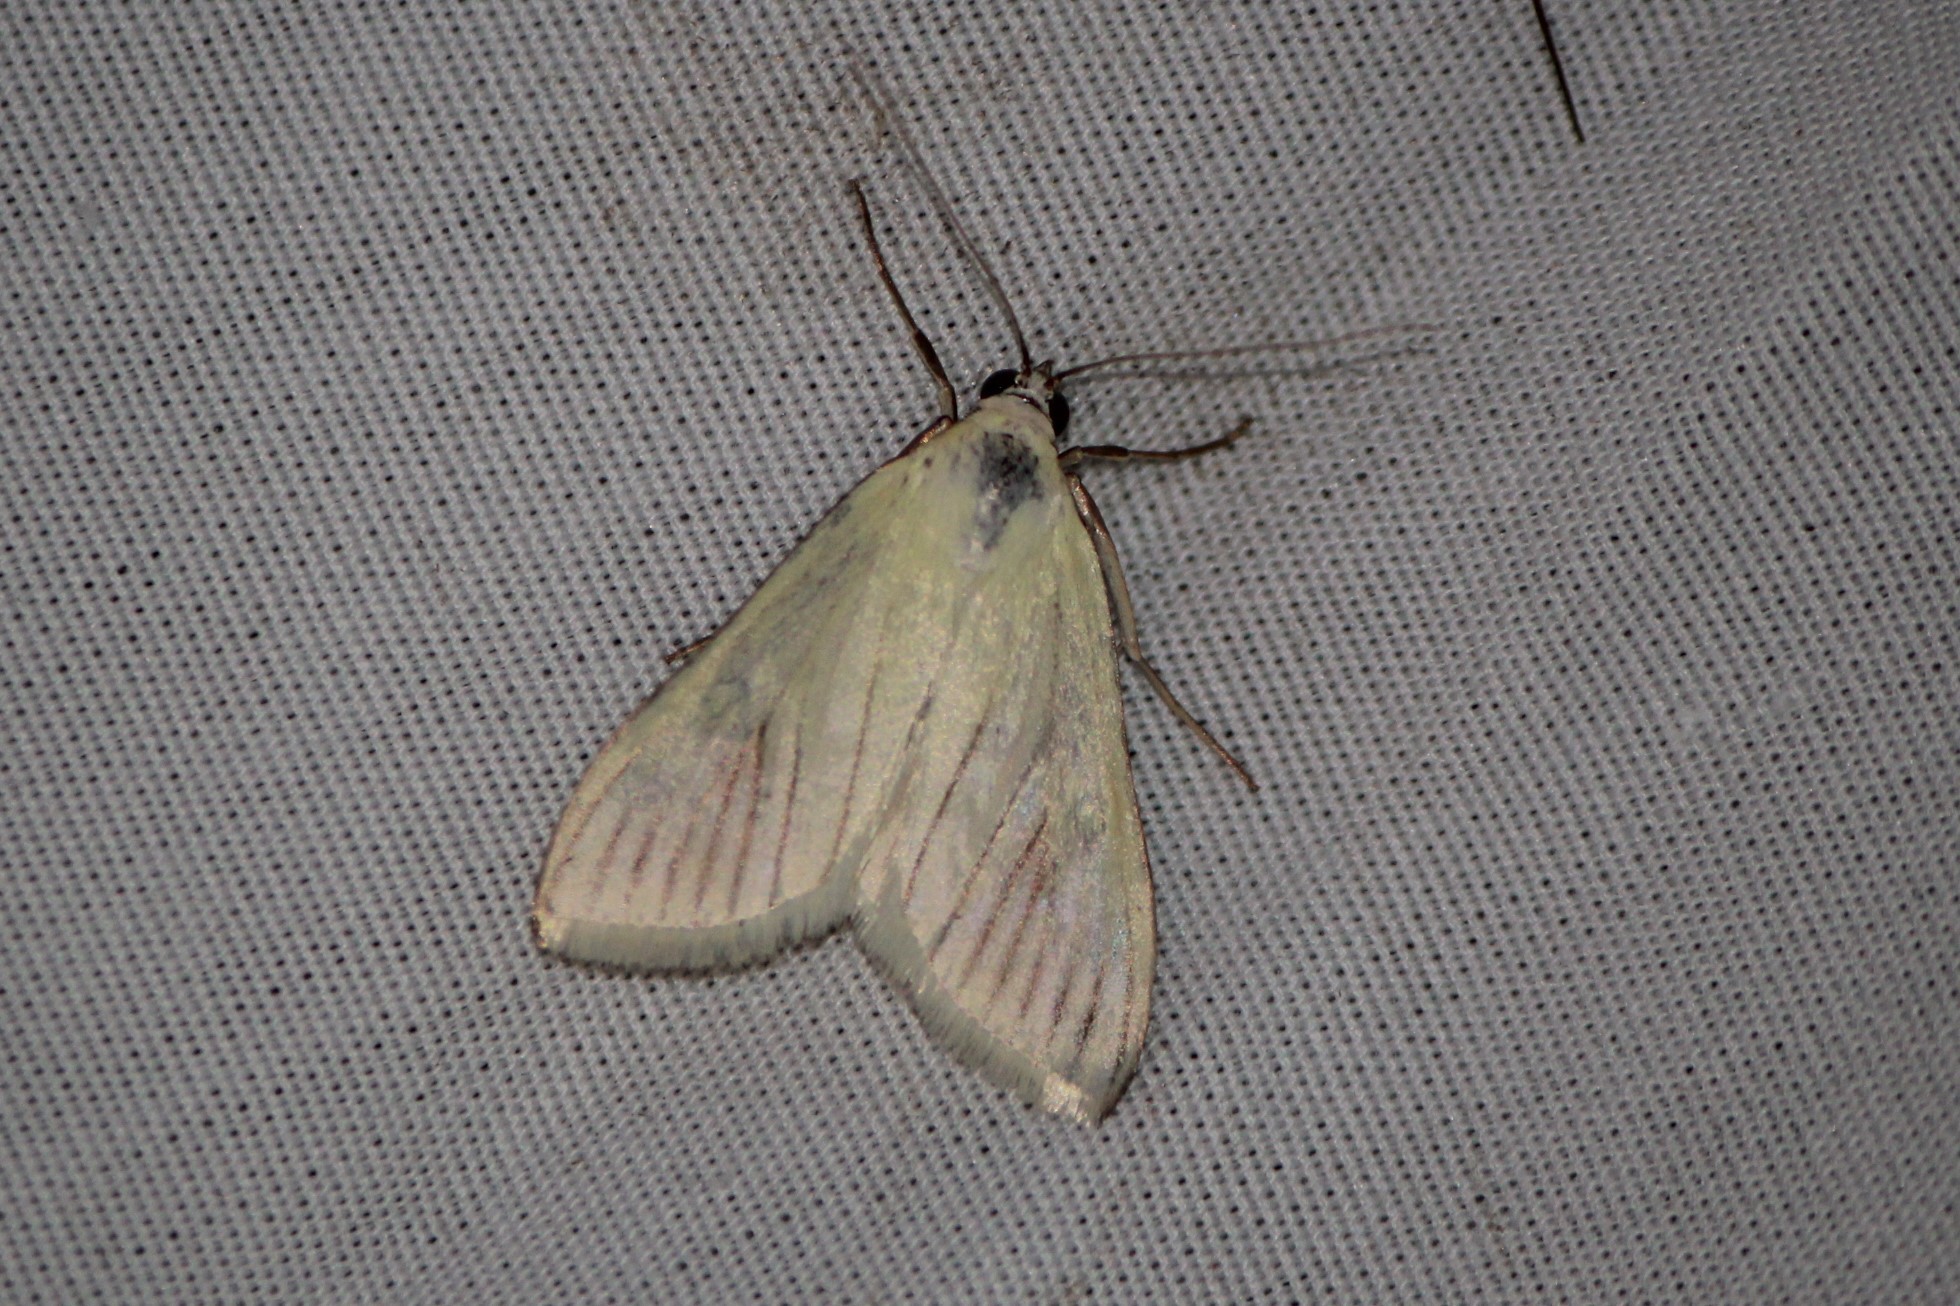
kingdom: Animalia
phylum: Arthropoda
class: Insecta
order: Lepidoptera
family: Crambidae
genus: Sitochroa
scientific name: Sitochroa palealis
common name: Greenish-yellow sitochroa moth
